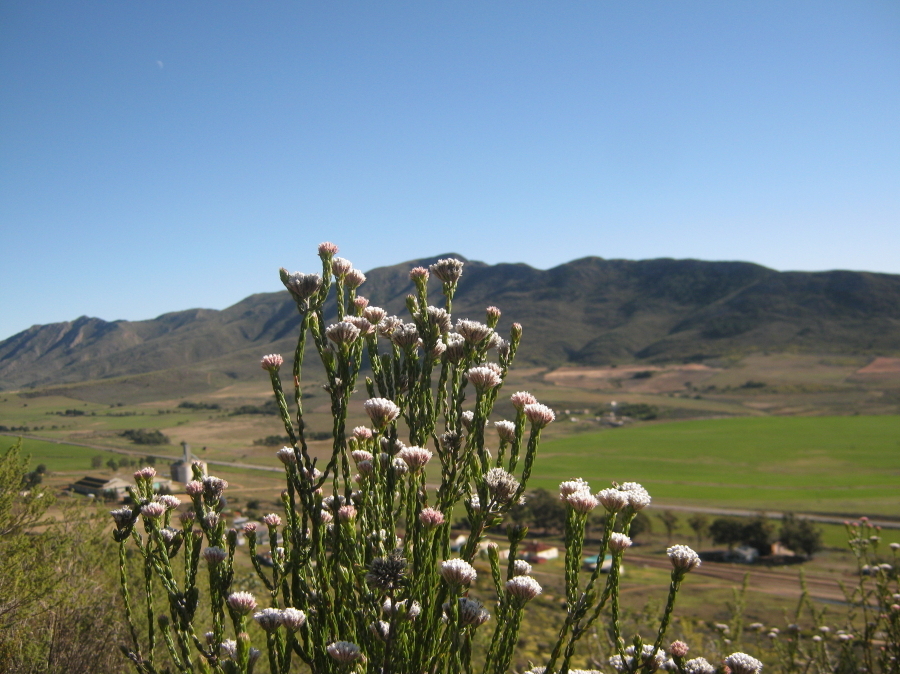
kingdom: Plantae
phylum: Tracheophyta
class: Magnoliopsida
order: Asterales
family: Asteraceae
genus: Metalasia
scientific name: Metalasia pulcherrima
